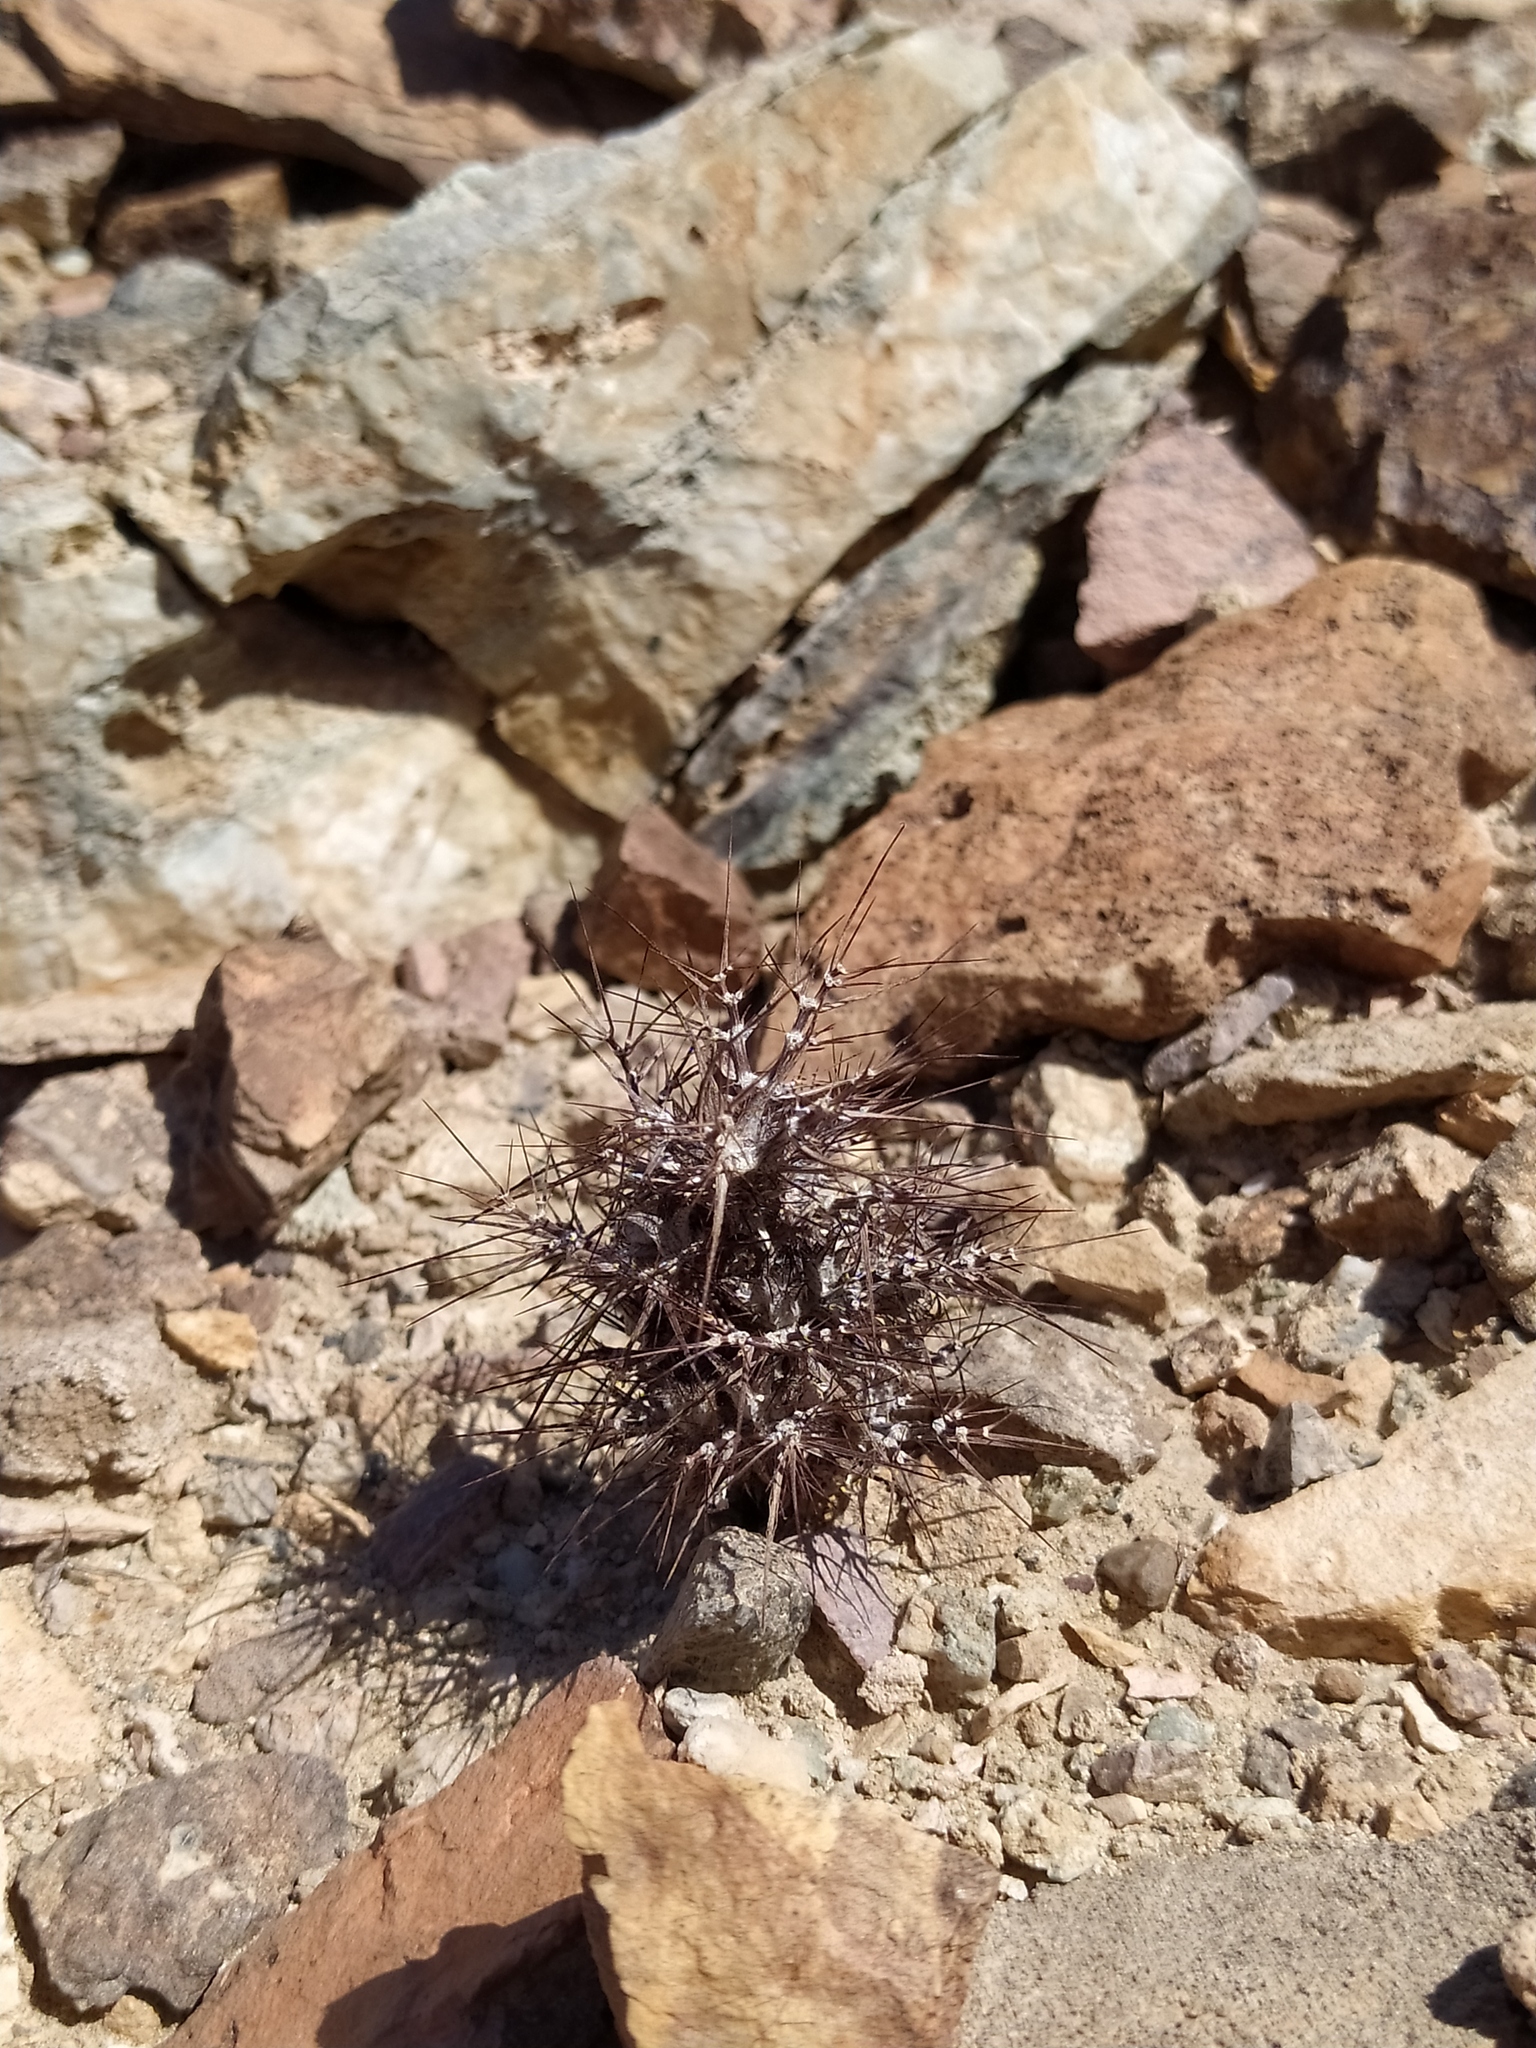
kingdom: Plantae
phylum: Tracheophyta
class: Magnoliopsida
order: Caryophyllales
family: Polygonaceae
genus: Chorizanthe
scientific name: Chorizanthe rigida
